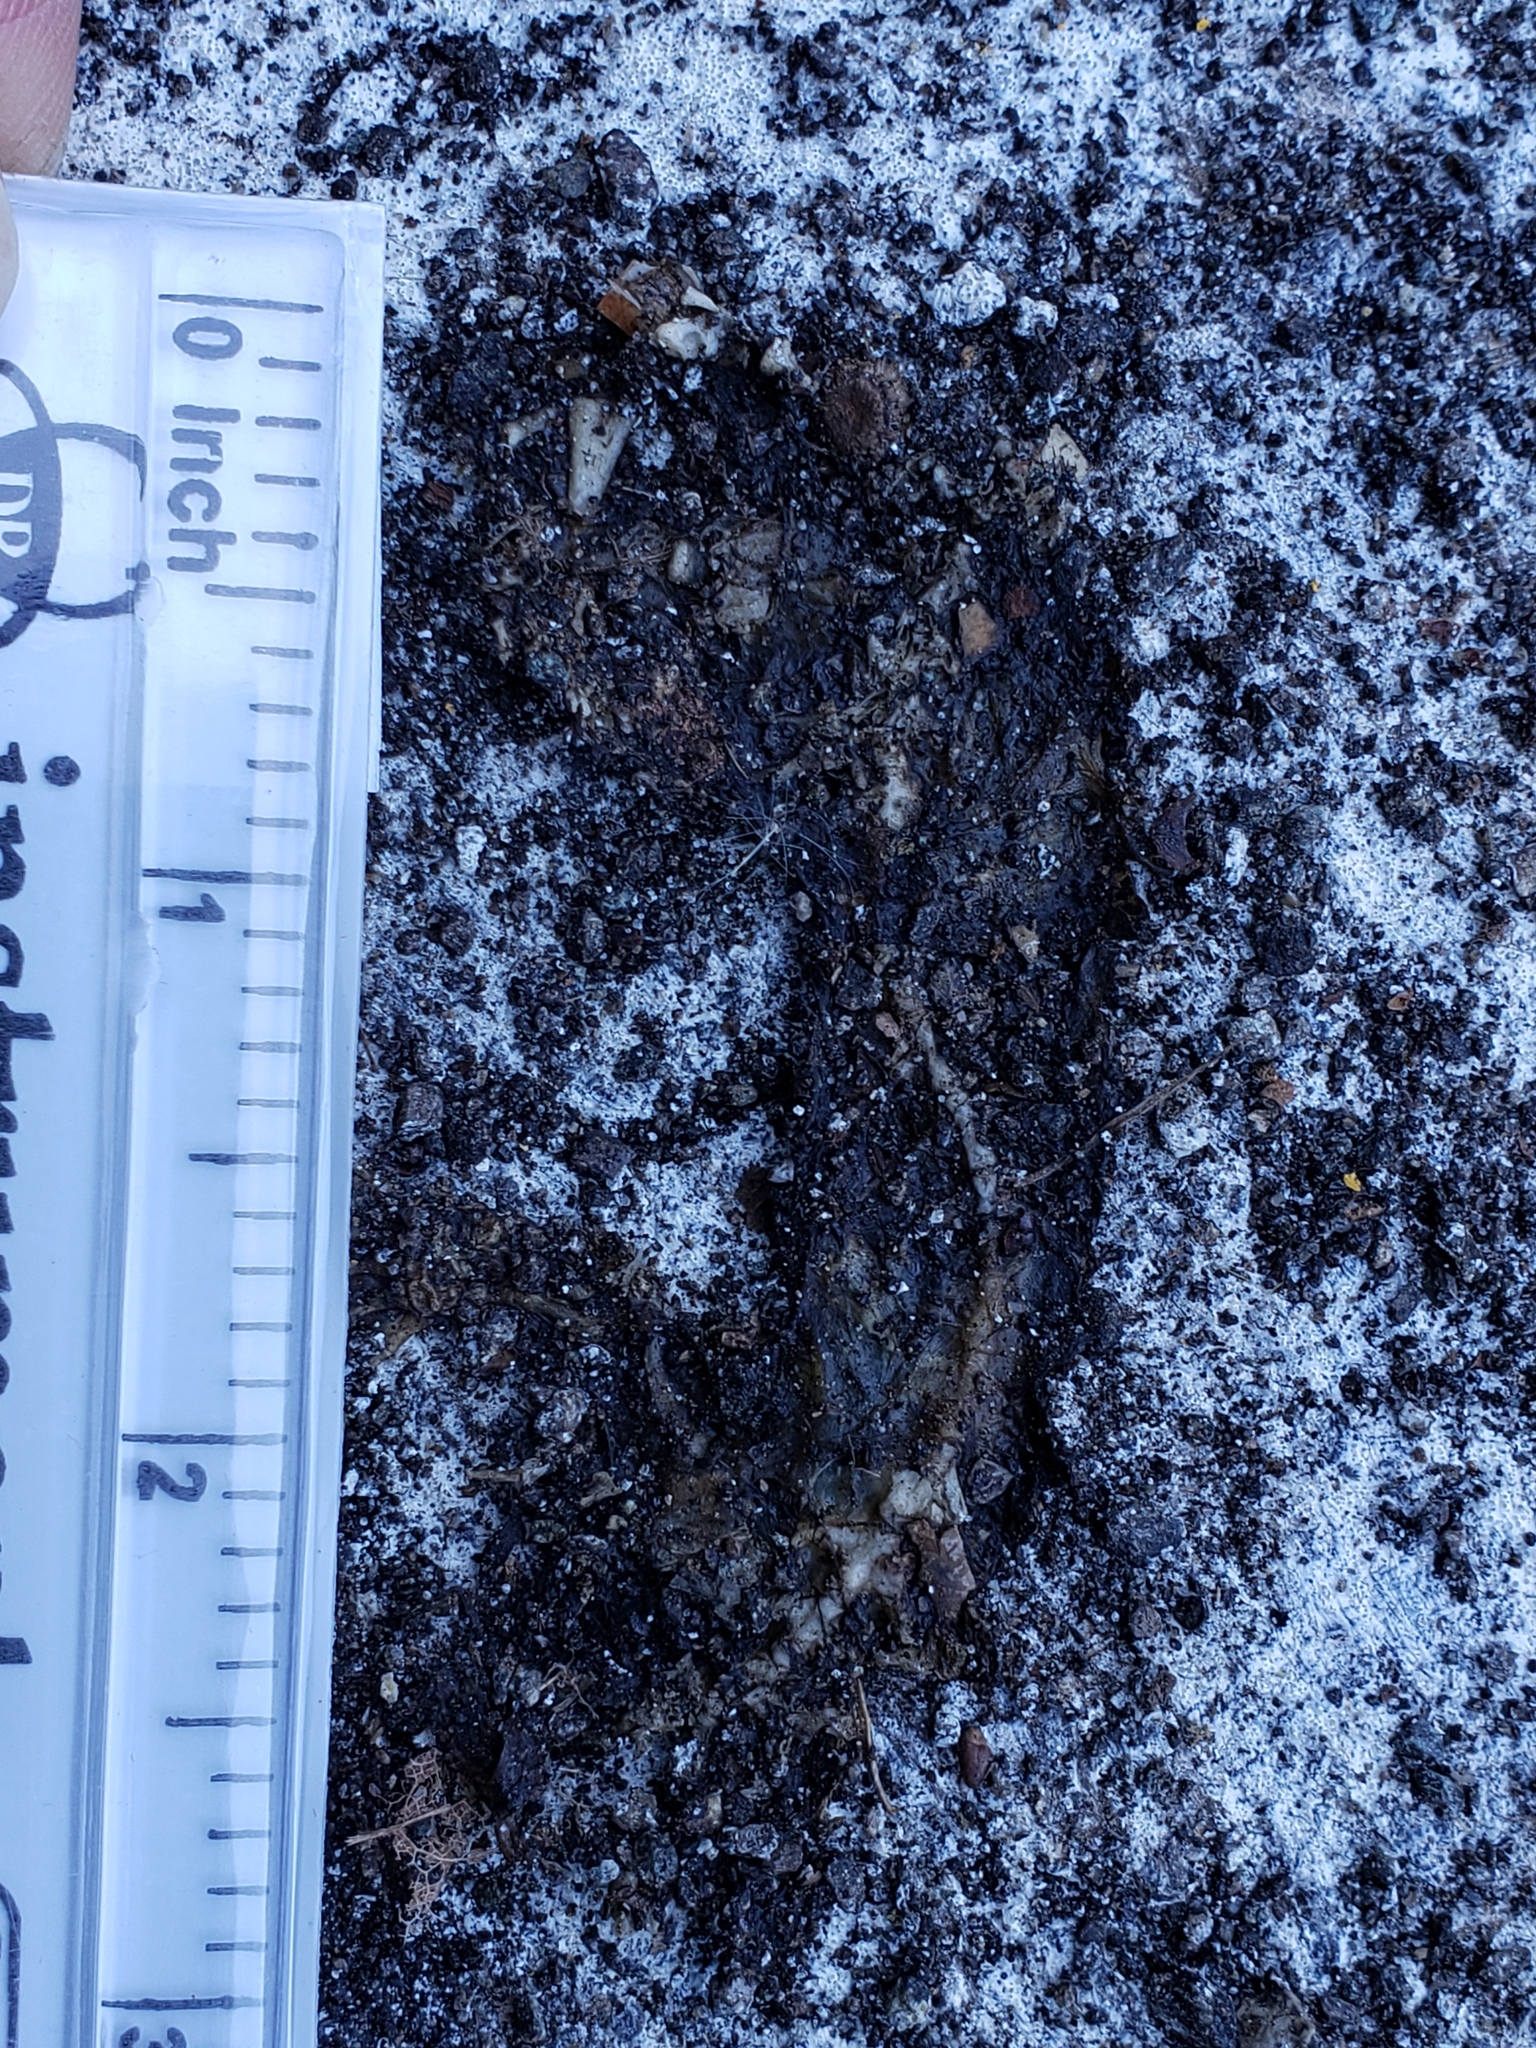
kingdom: Animalia
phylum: Chordata
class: Amphibia
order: Caudata
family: Salamandridae
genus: Taricha
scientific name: Taricha
